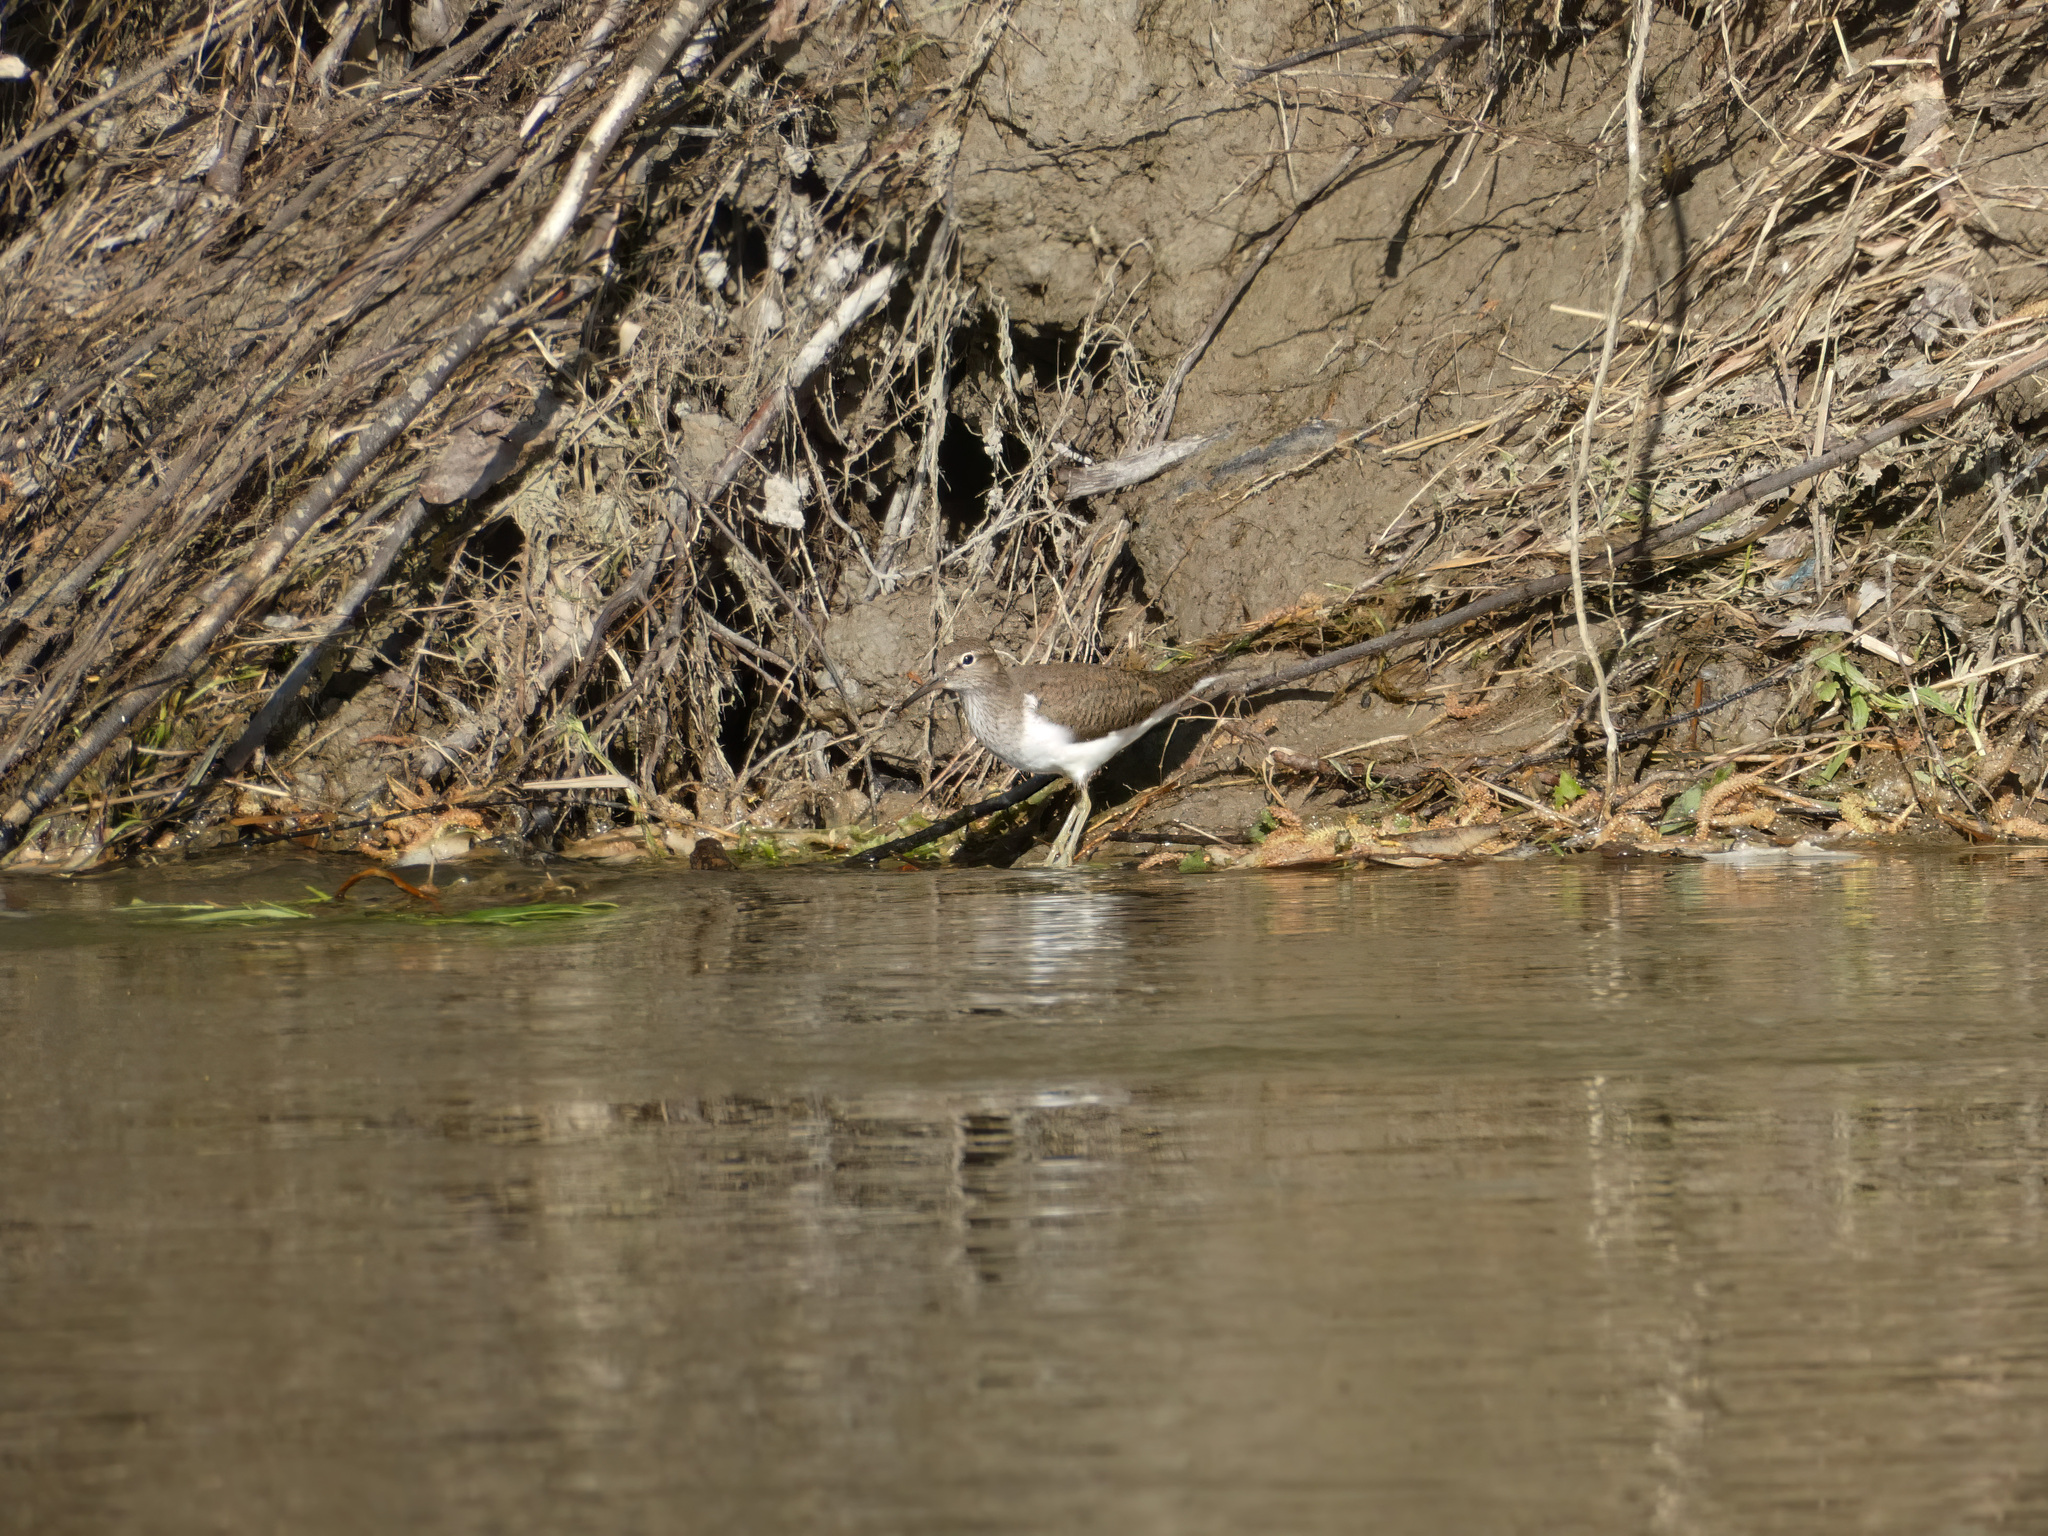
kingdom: Animalia
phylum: Chordata
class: Aves
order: Charadriiformes
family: Scolopacidae
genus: Actitis
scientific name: Actitis hypoleucos
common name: Common sandpiper
